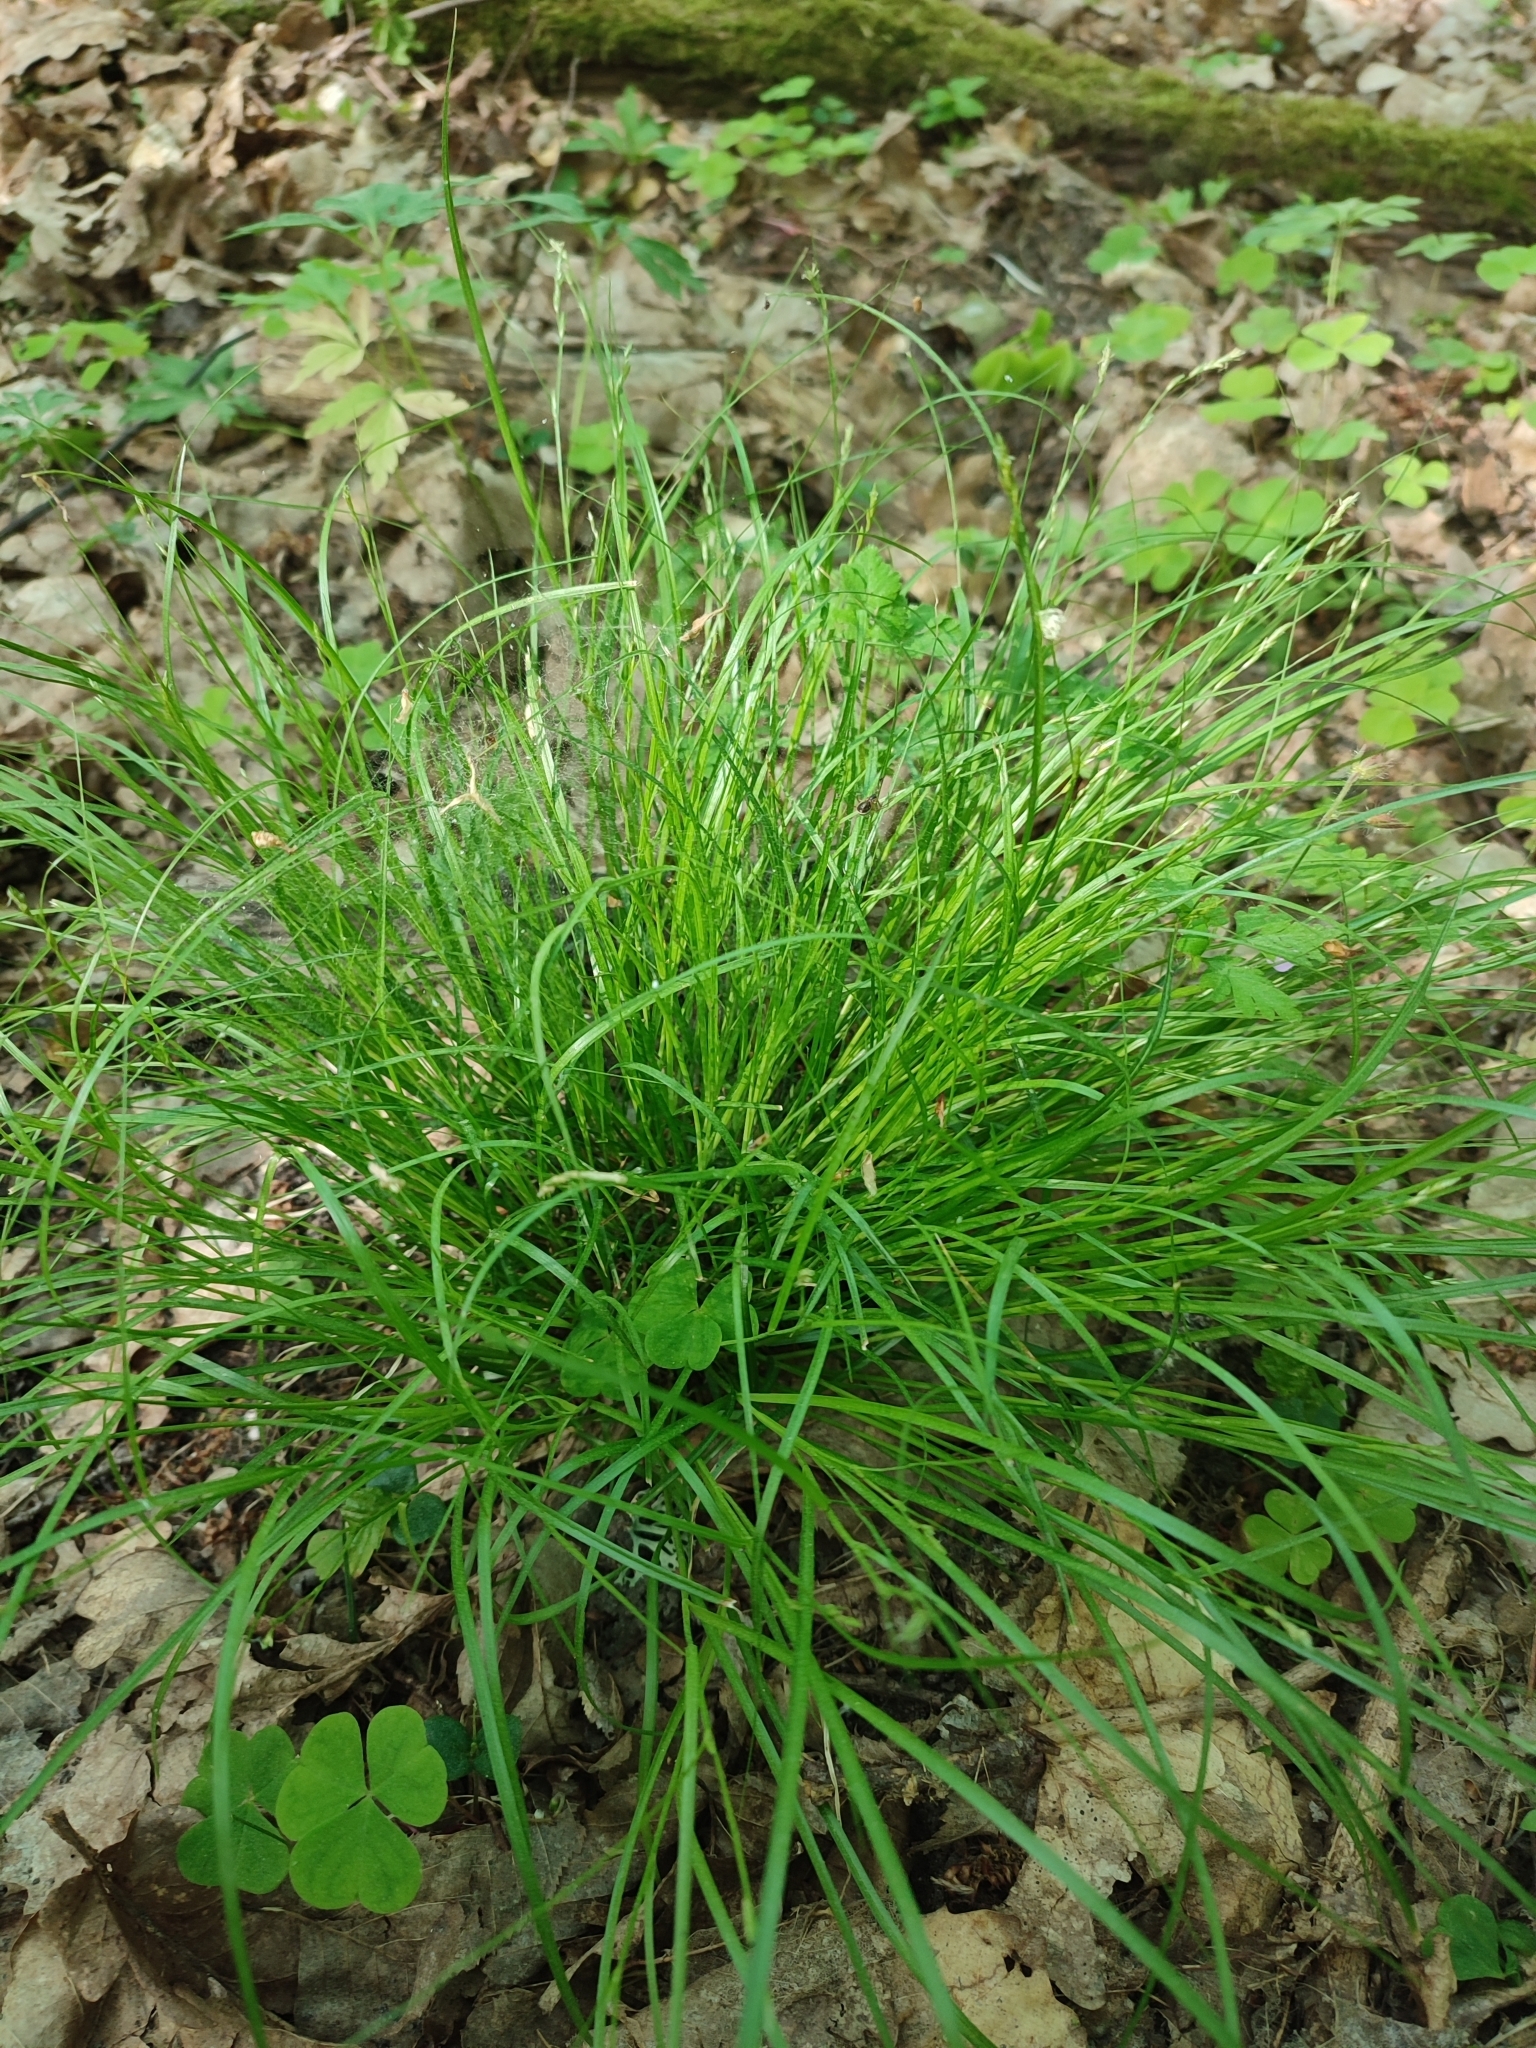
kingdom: Plantae
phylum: Tracheophyta
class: Liliopsida
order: Poales
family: Cyperaceae
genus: Carex
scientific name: Carex remota
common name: Remote sedge
